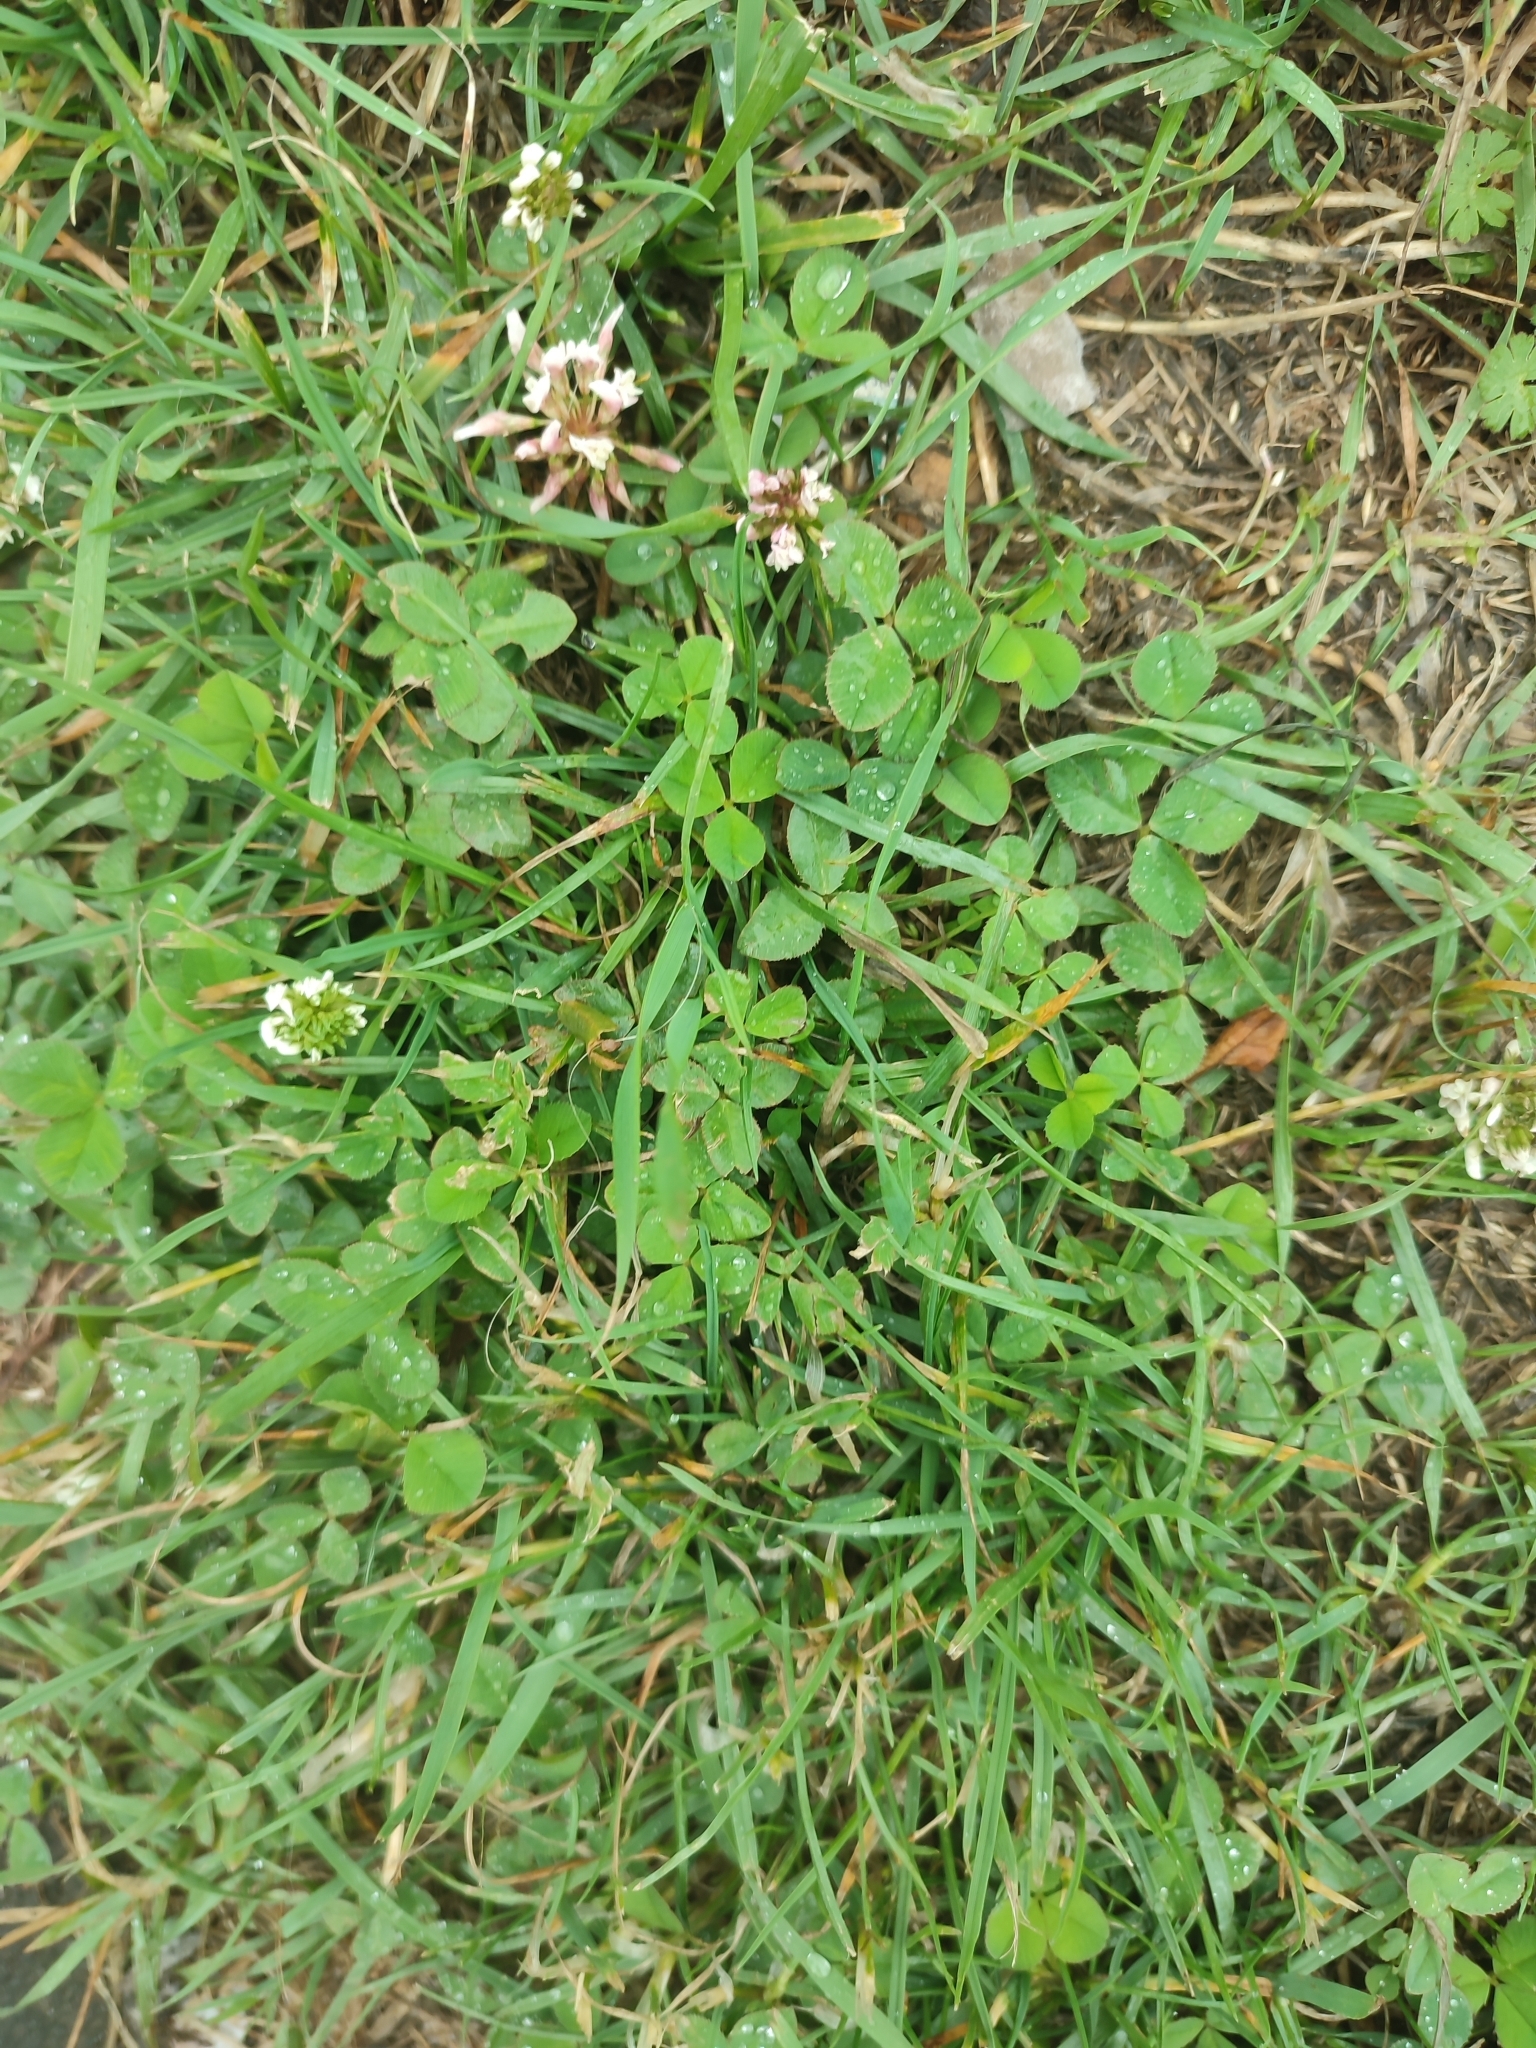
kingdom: Plantae
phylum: Tracheophyta
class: Magnoliopsida
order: Fabales
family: Fabaceae
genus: Trifolium
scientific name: Trifolium repens
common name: White clover
